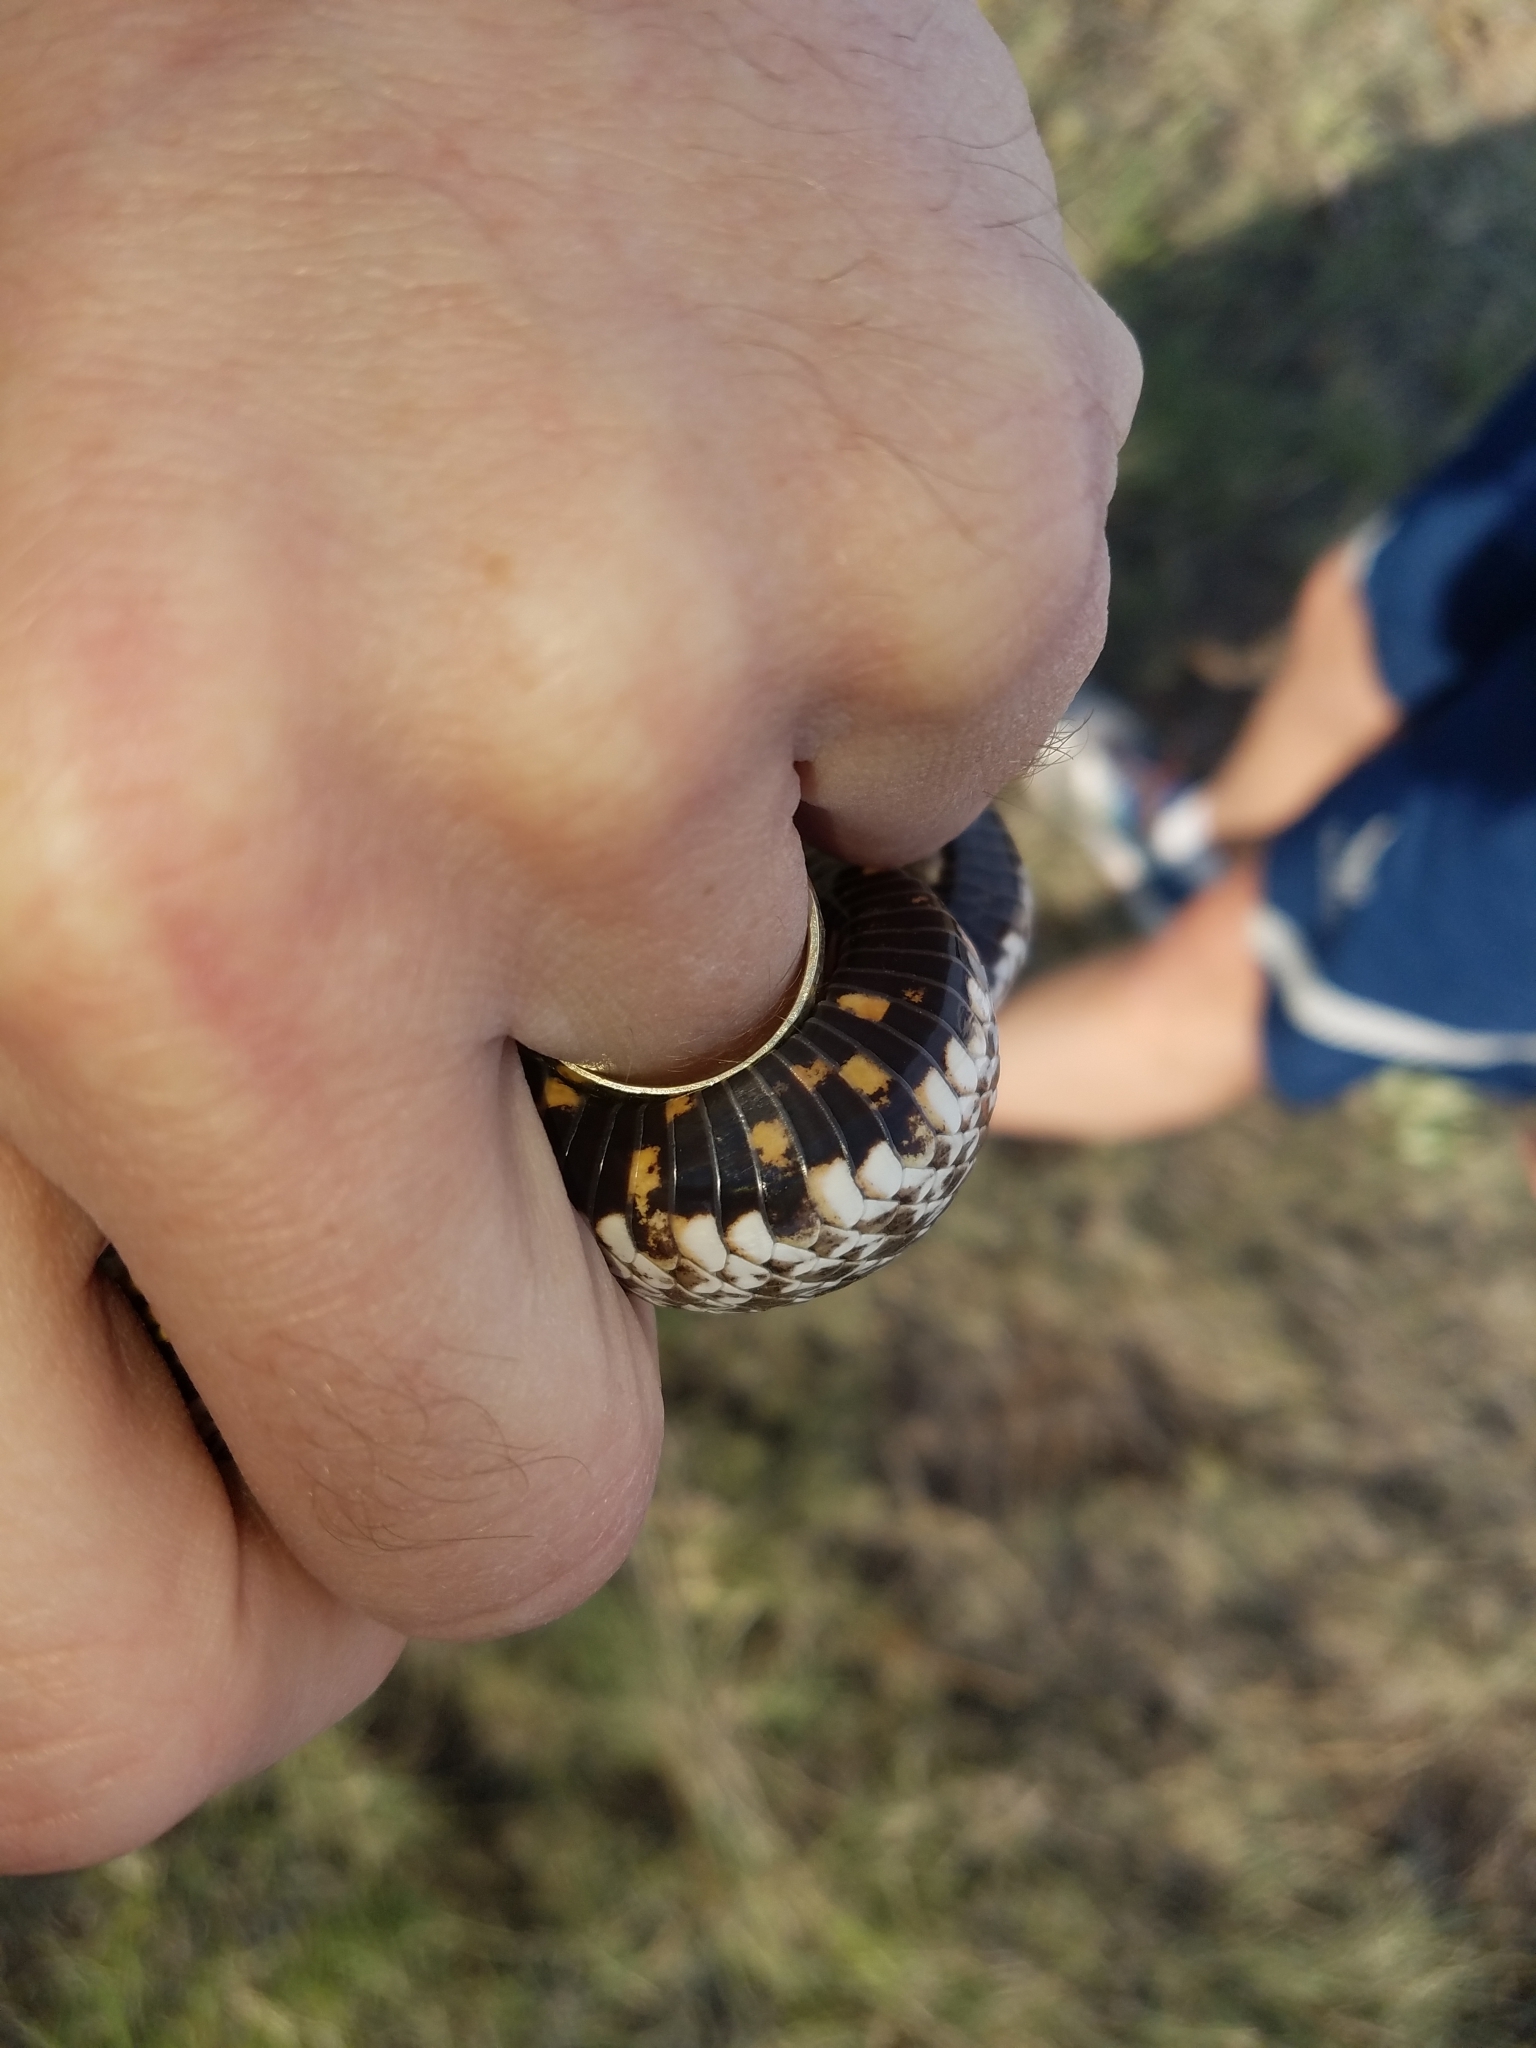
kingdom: Animalia
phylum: Chordata
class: Squamata
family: Colubridae
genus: Heterodon
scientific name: Heterodon nasicus
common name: Western hognose snake
